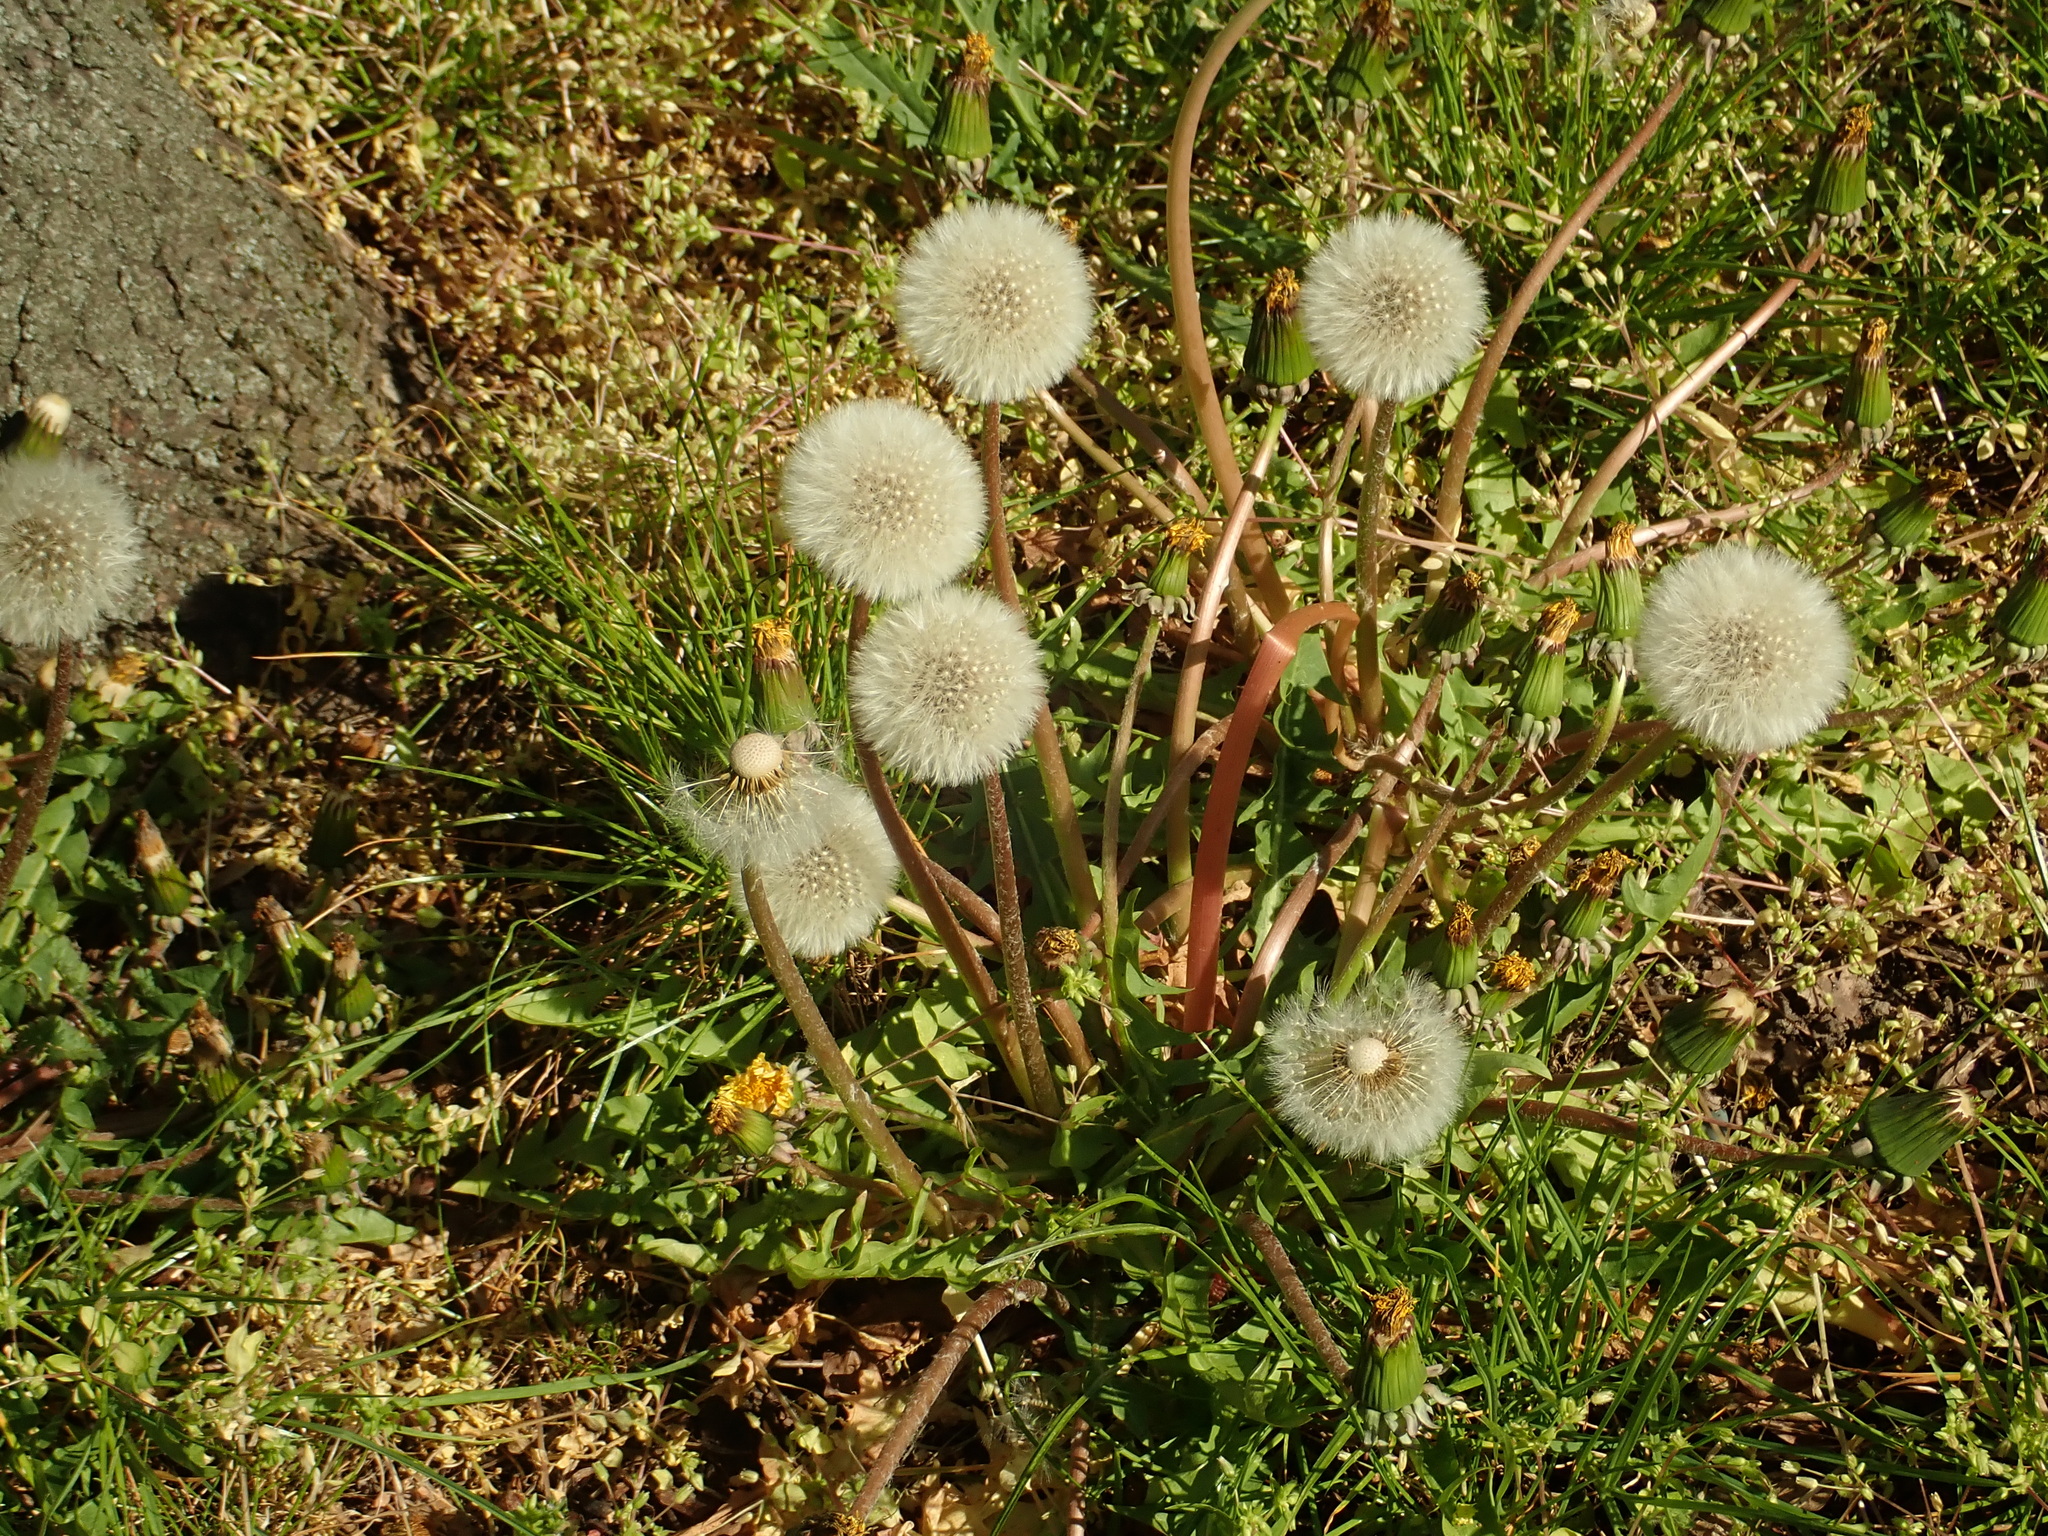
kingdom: Plantae
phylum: Tracheophyta
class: Magnoliopsida
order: Asterales
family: Asteraceae
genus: Taraxacum
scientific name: Taraxacum officinale
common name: Common dandelion
